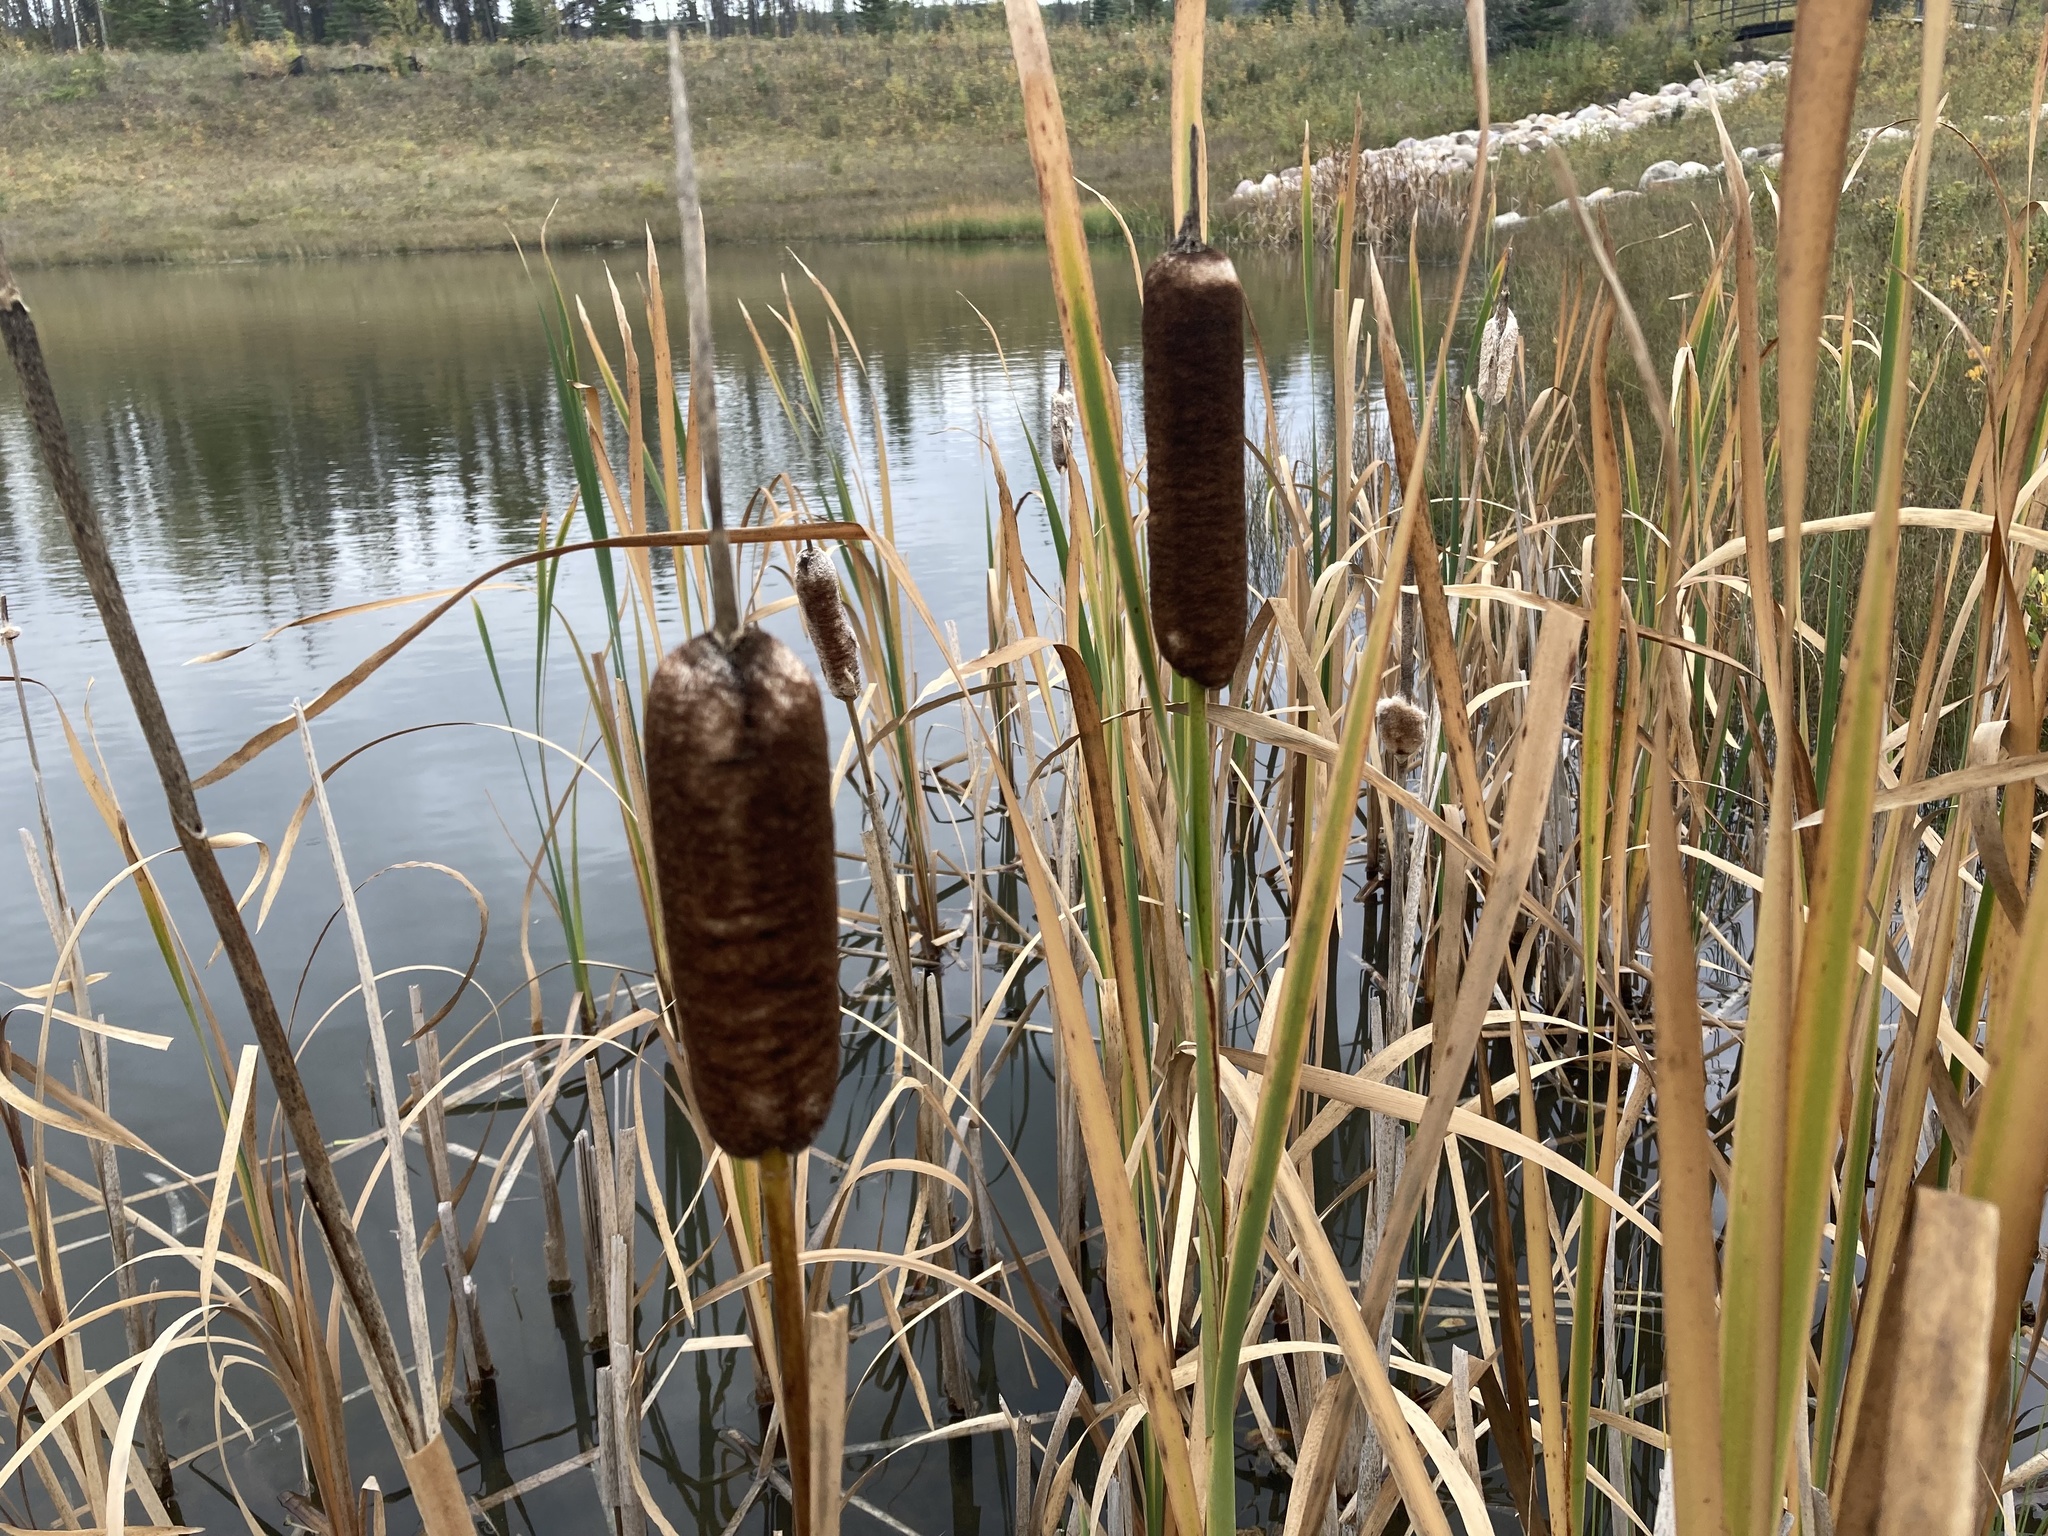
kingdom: Plantae
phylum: Tracheophyta
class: Liliopsida
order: Poales
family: Typhaceae
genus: Typha
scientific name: Typha latifolia
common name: Broadleaf cattail
